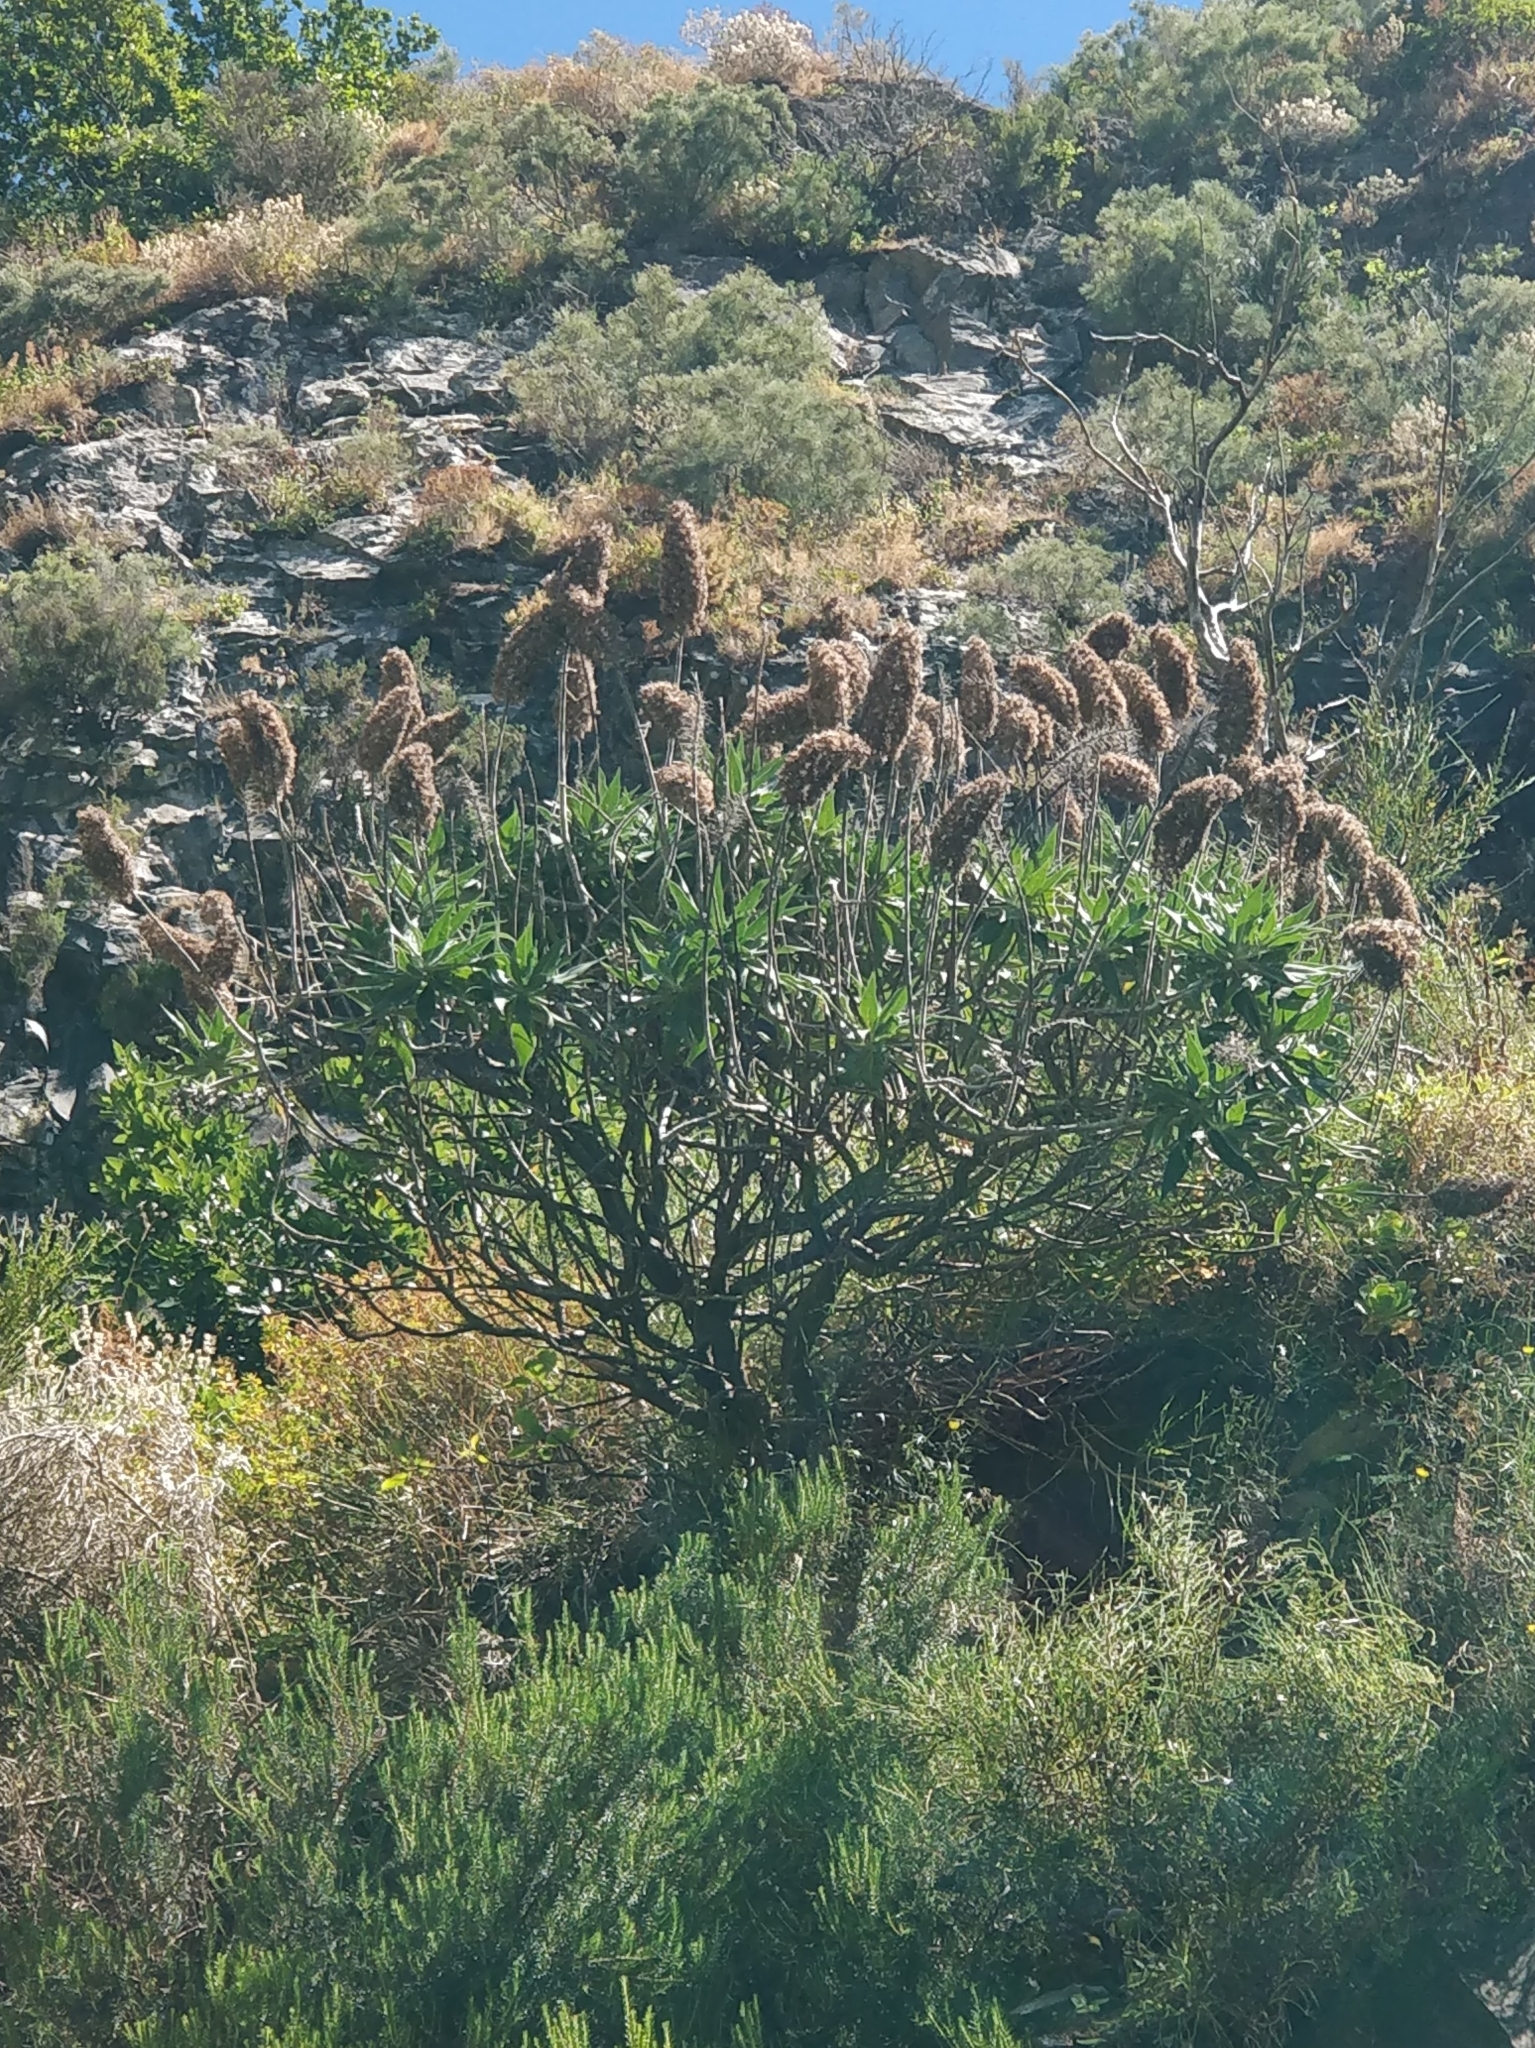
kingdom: Plantae
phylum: Tracheophyta
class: Magnoliopsida
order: Boraginales
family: Boraginaceae
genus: Echium
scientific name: Echium candicans
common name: Pride of madeira
